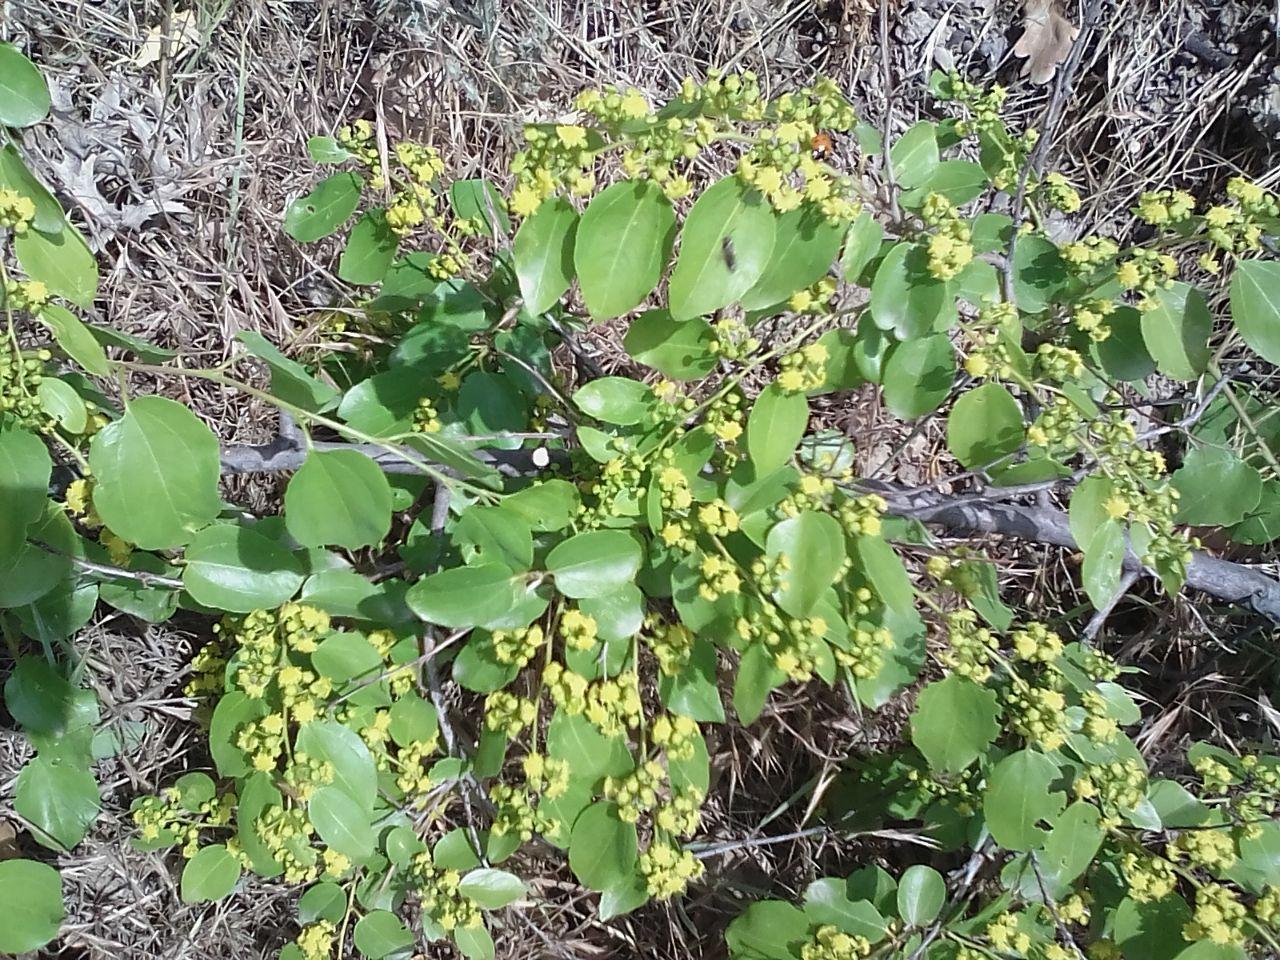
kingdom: Plantae
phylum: Tracheophyta
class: Magnoliopsida
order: Rosales
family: Rhamnaceae
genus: Paliurus
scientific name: Paliurus spina-christi
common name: Jeruselem thorn
